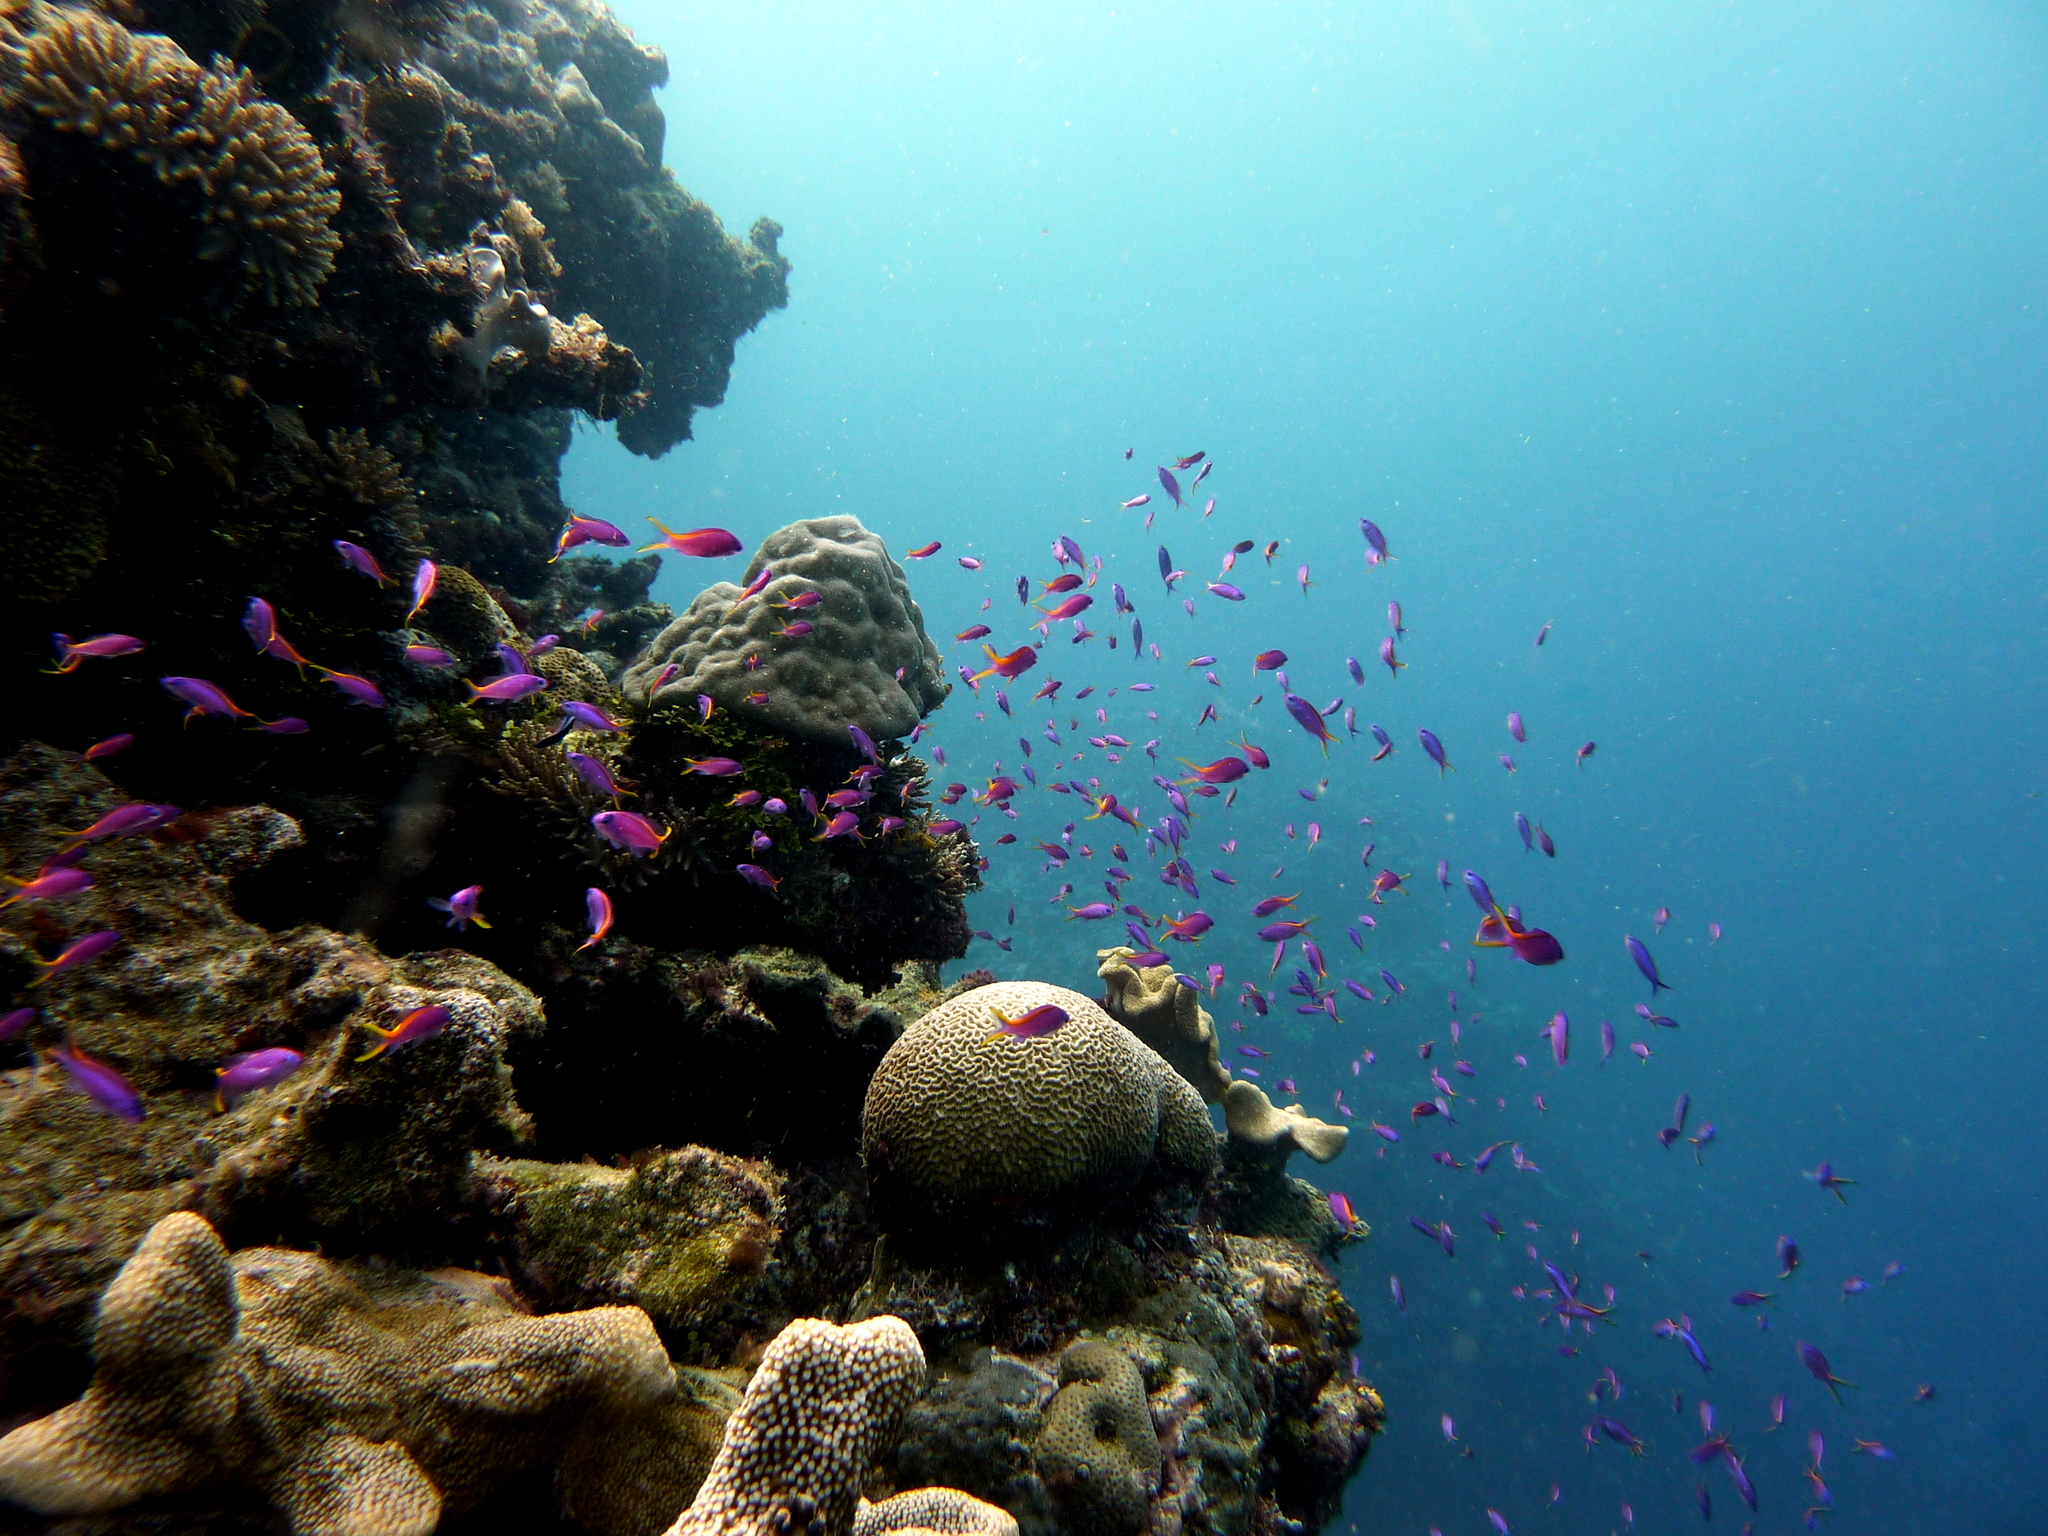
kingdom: Animalia
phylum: Chordata
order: Perciformes
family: Serranidae
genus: Pseudanthias
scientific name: Pseudanthias tuka
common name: Purple queen
